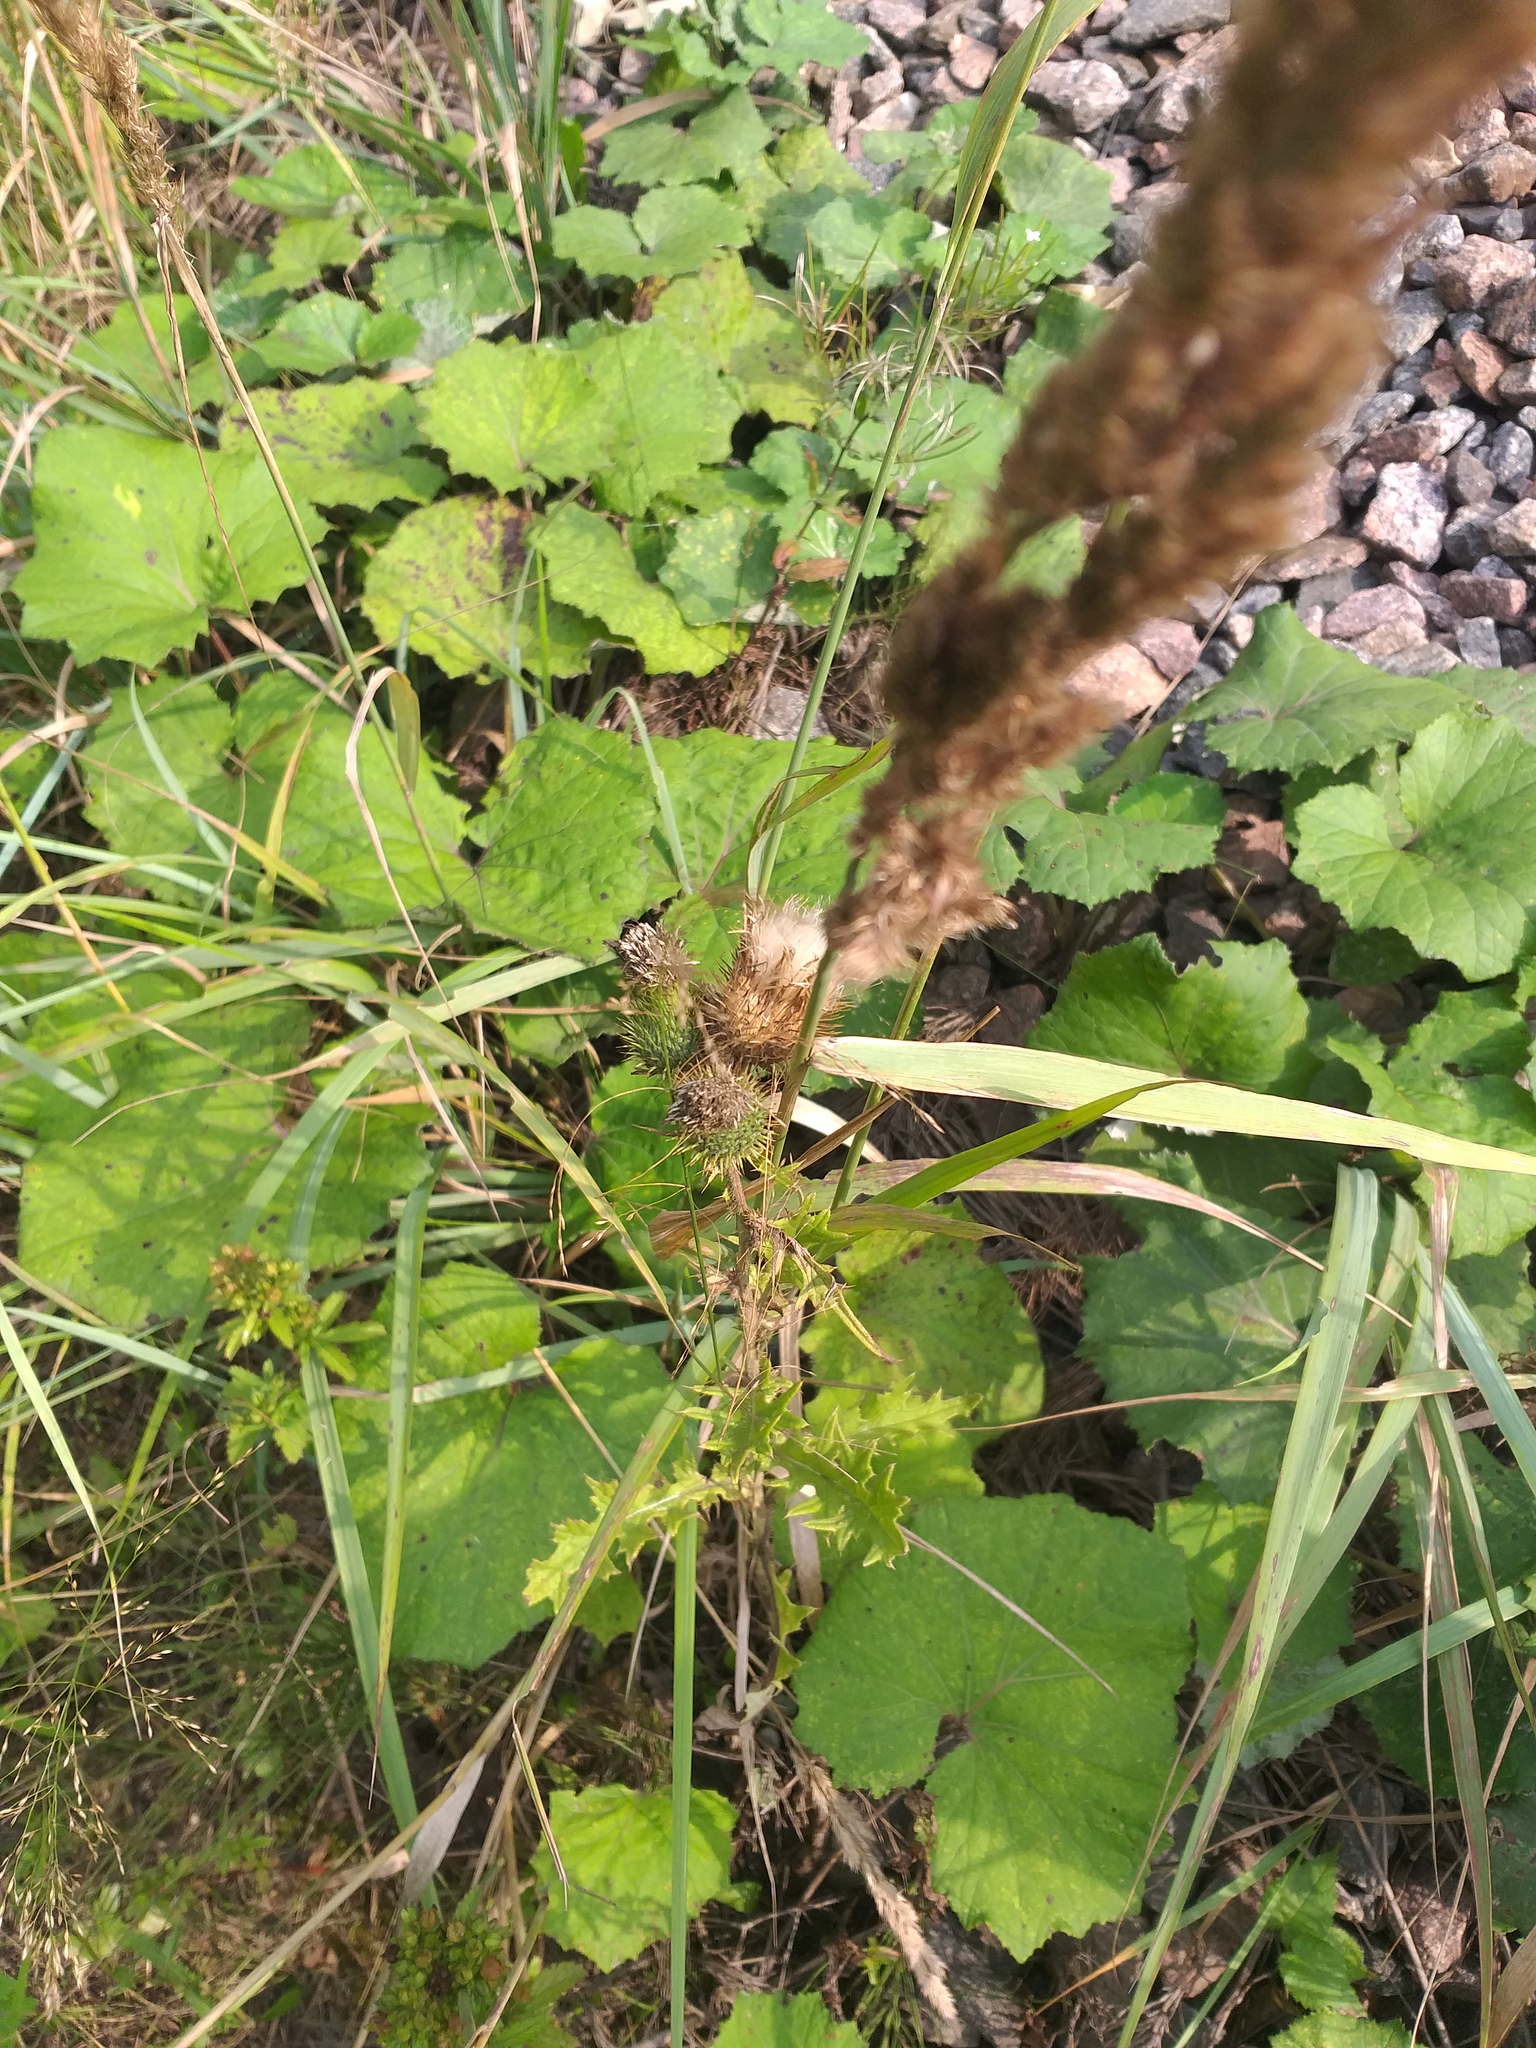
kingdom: Plantae
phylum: Tracheophyta
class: Magnoliopsida
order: Asterales
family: Asteraceae
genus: Cirsium
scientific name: Cirsium vulgare
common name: Bull thistle
